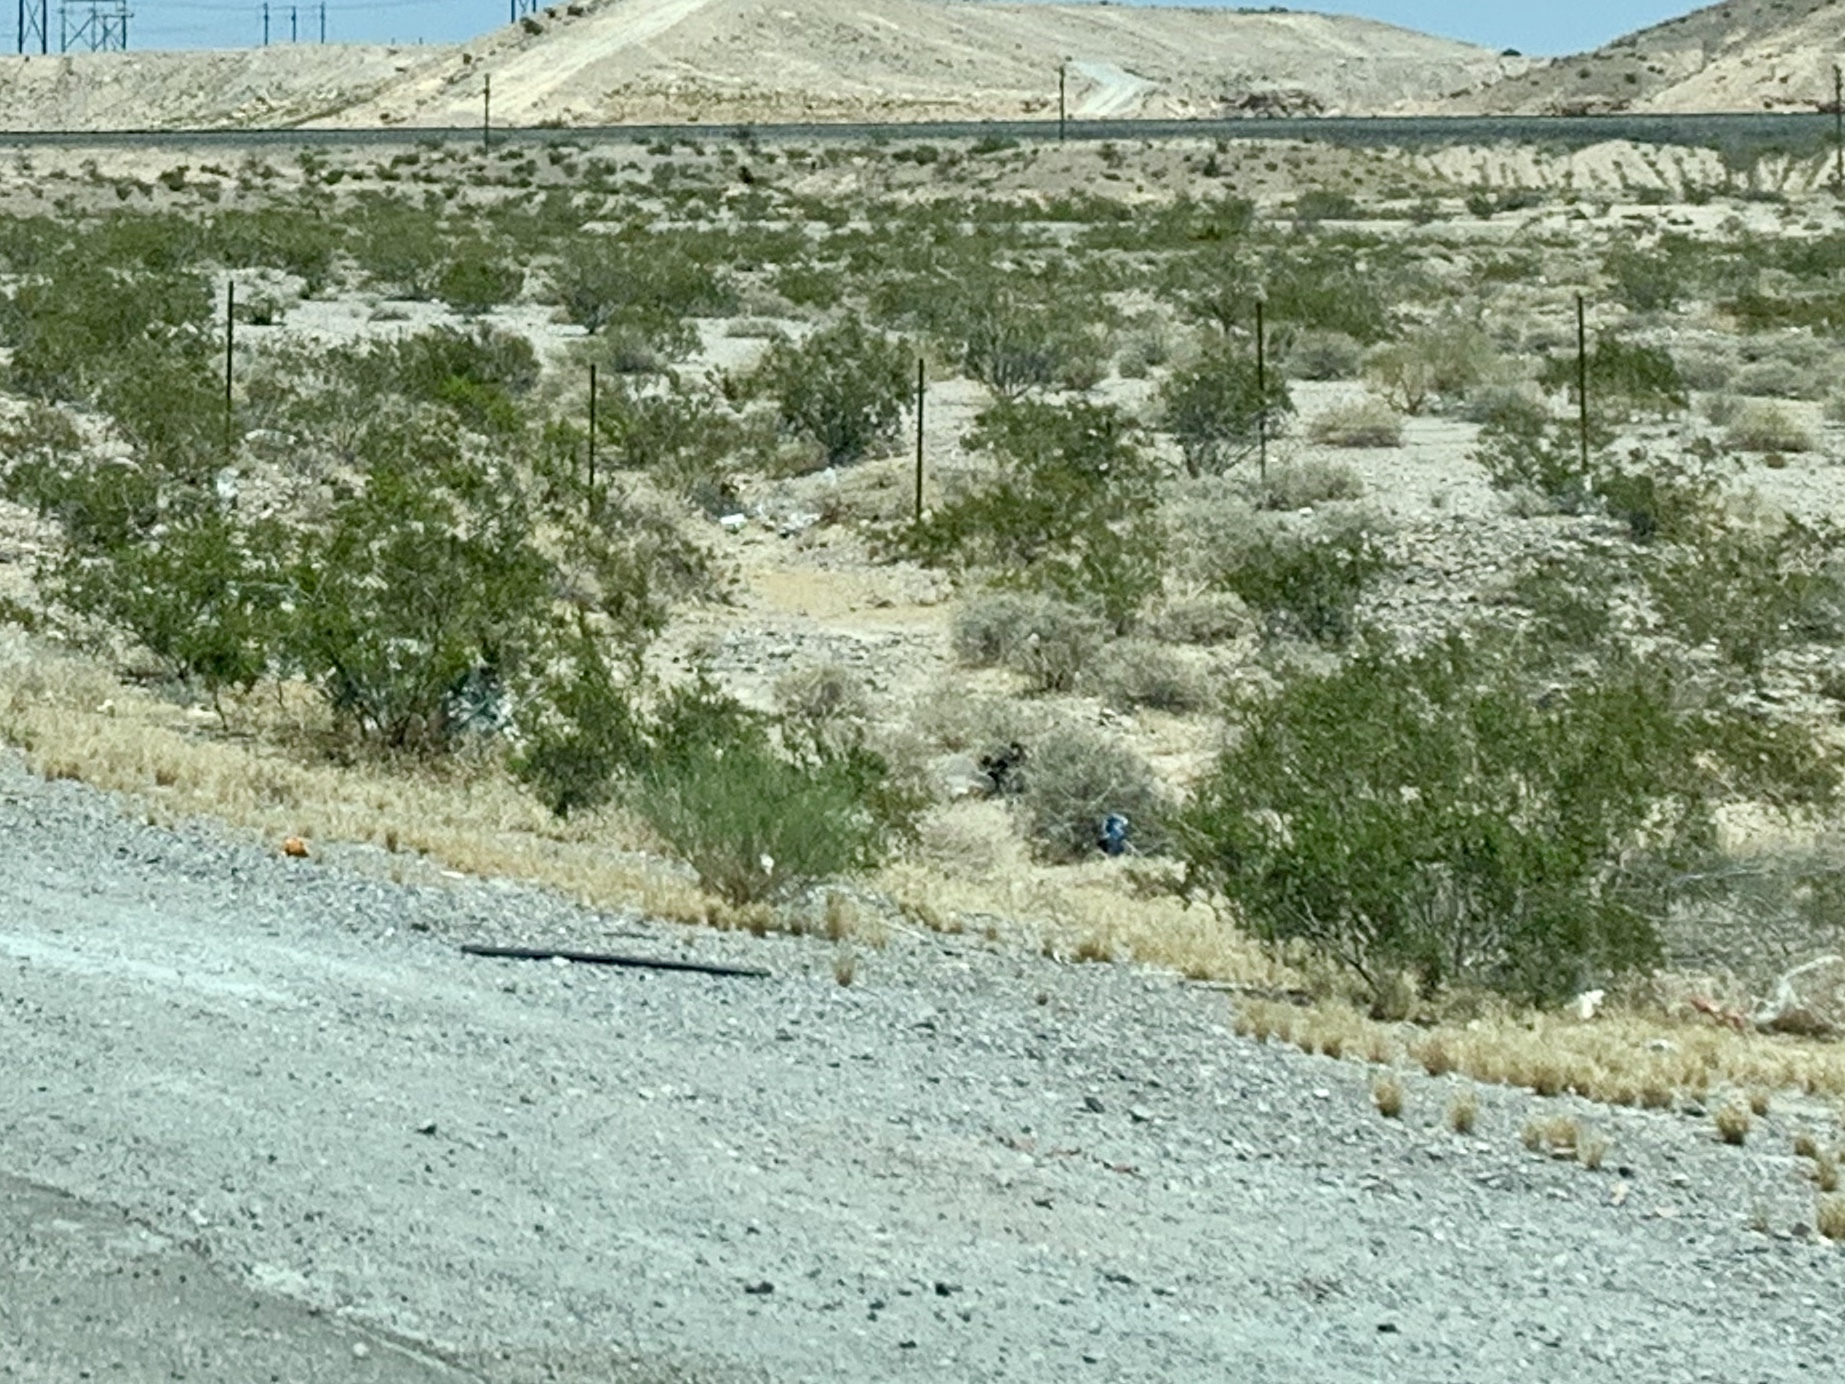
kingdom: Plantae
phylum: Tracheophyta
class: Magnoliopsida
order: Zygophyllales
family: Zygophyllaceae
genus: Larrea
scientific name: Larrea tridentata
